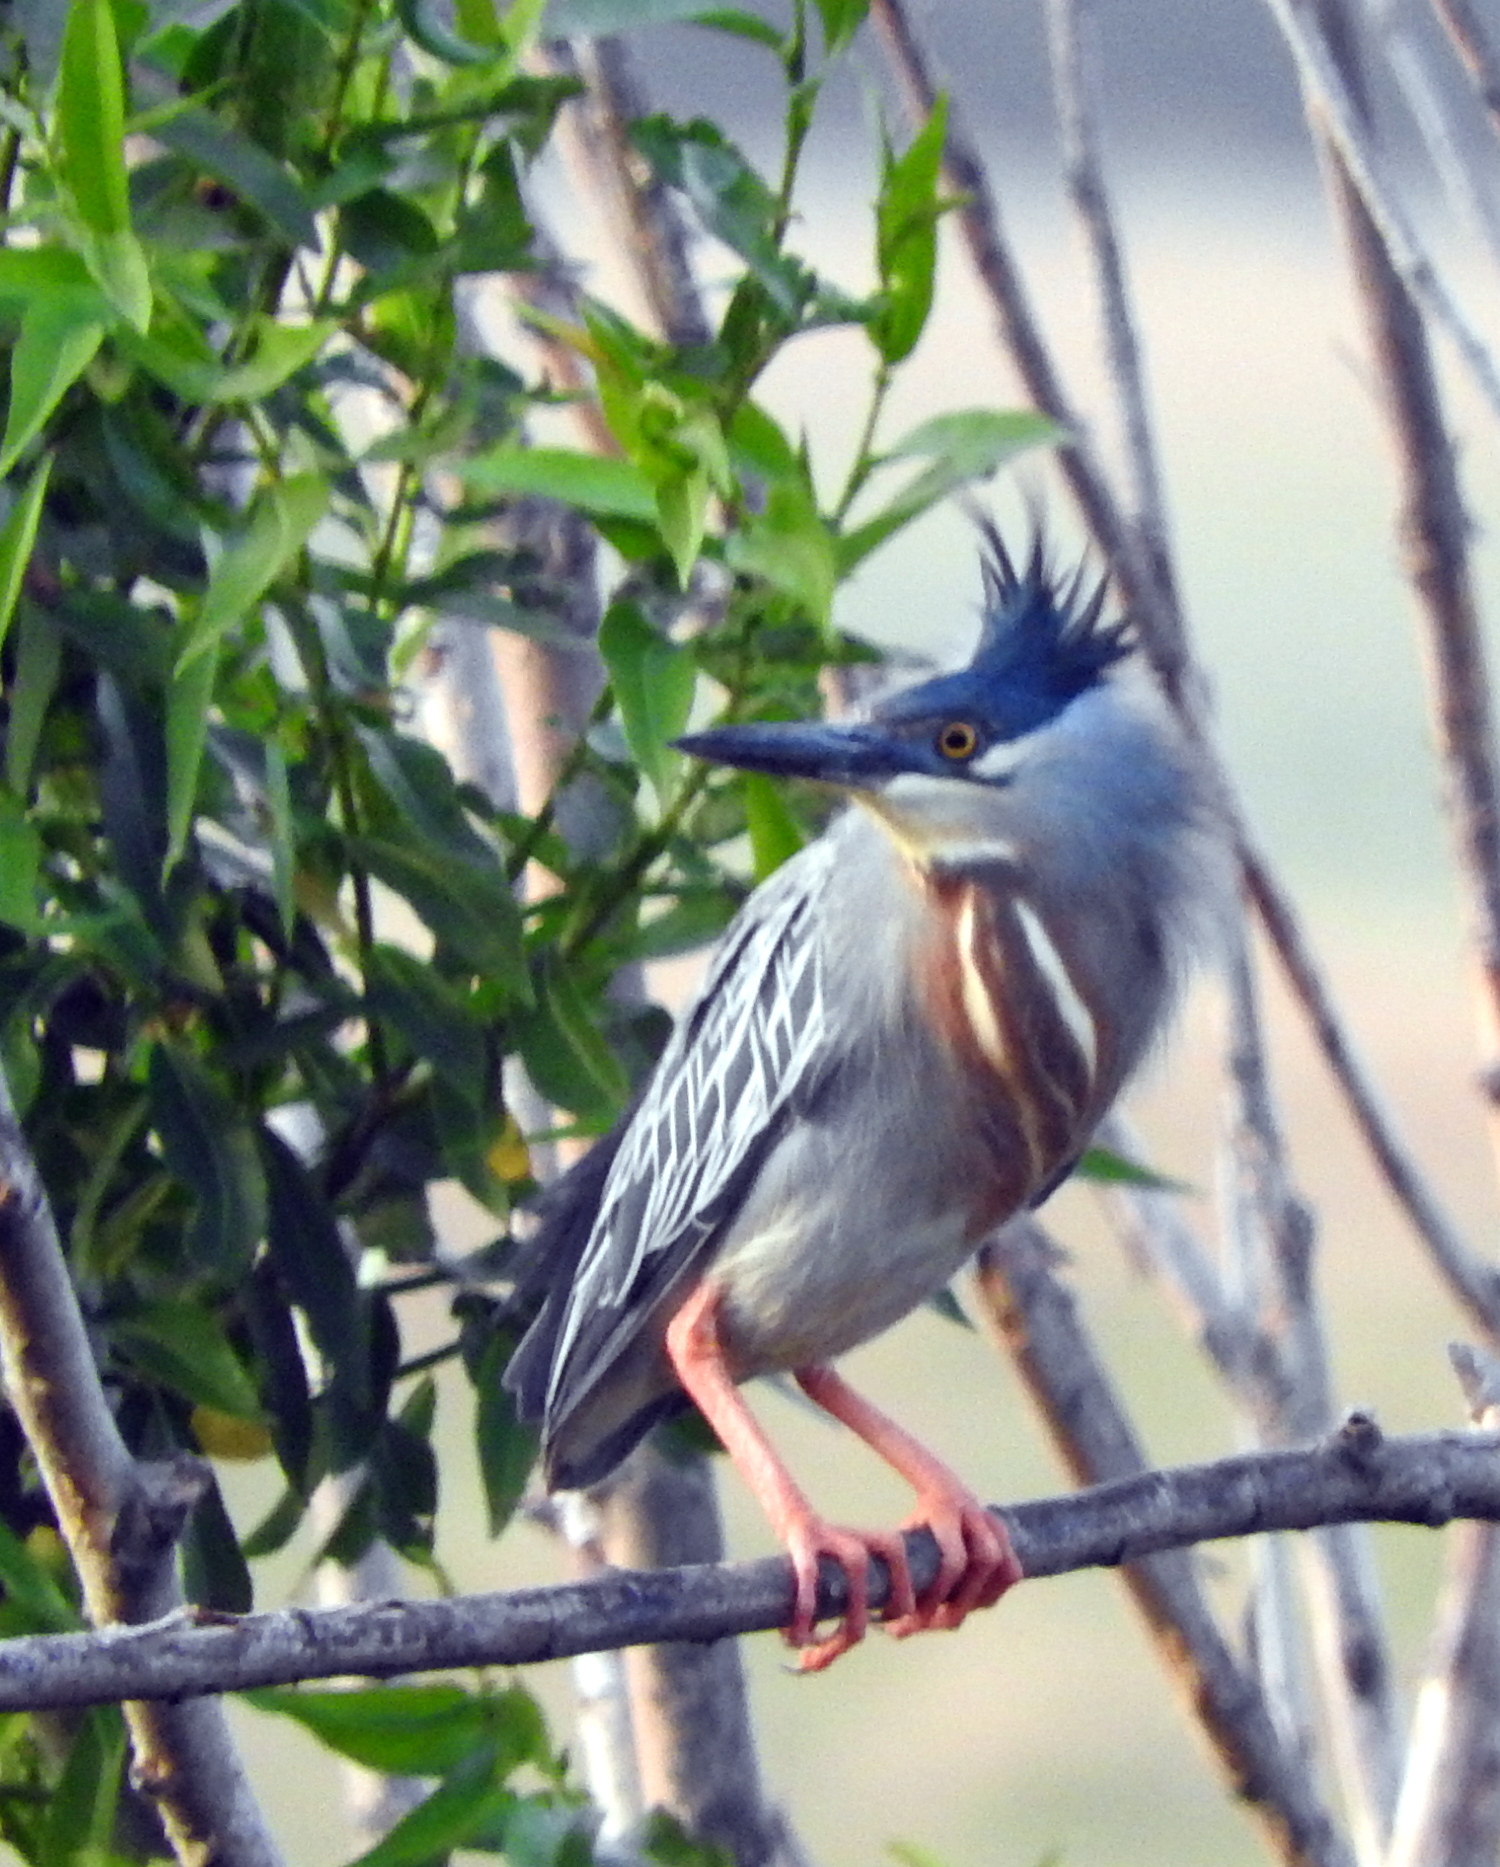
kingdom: Animalia
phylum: Chordata
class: Aves
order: Pelecaniformes
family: Ardeidae
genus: Butorides
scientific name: Butorides striata
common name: Striated heron
